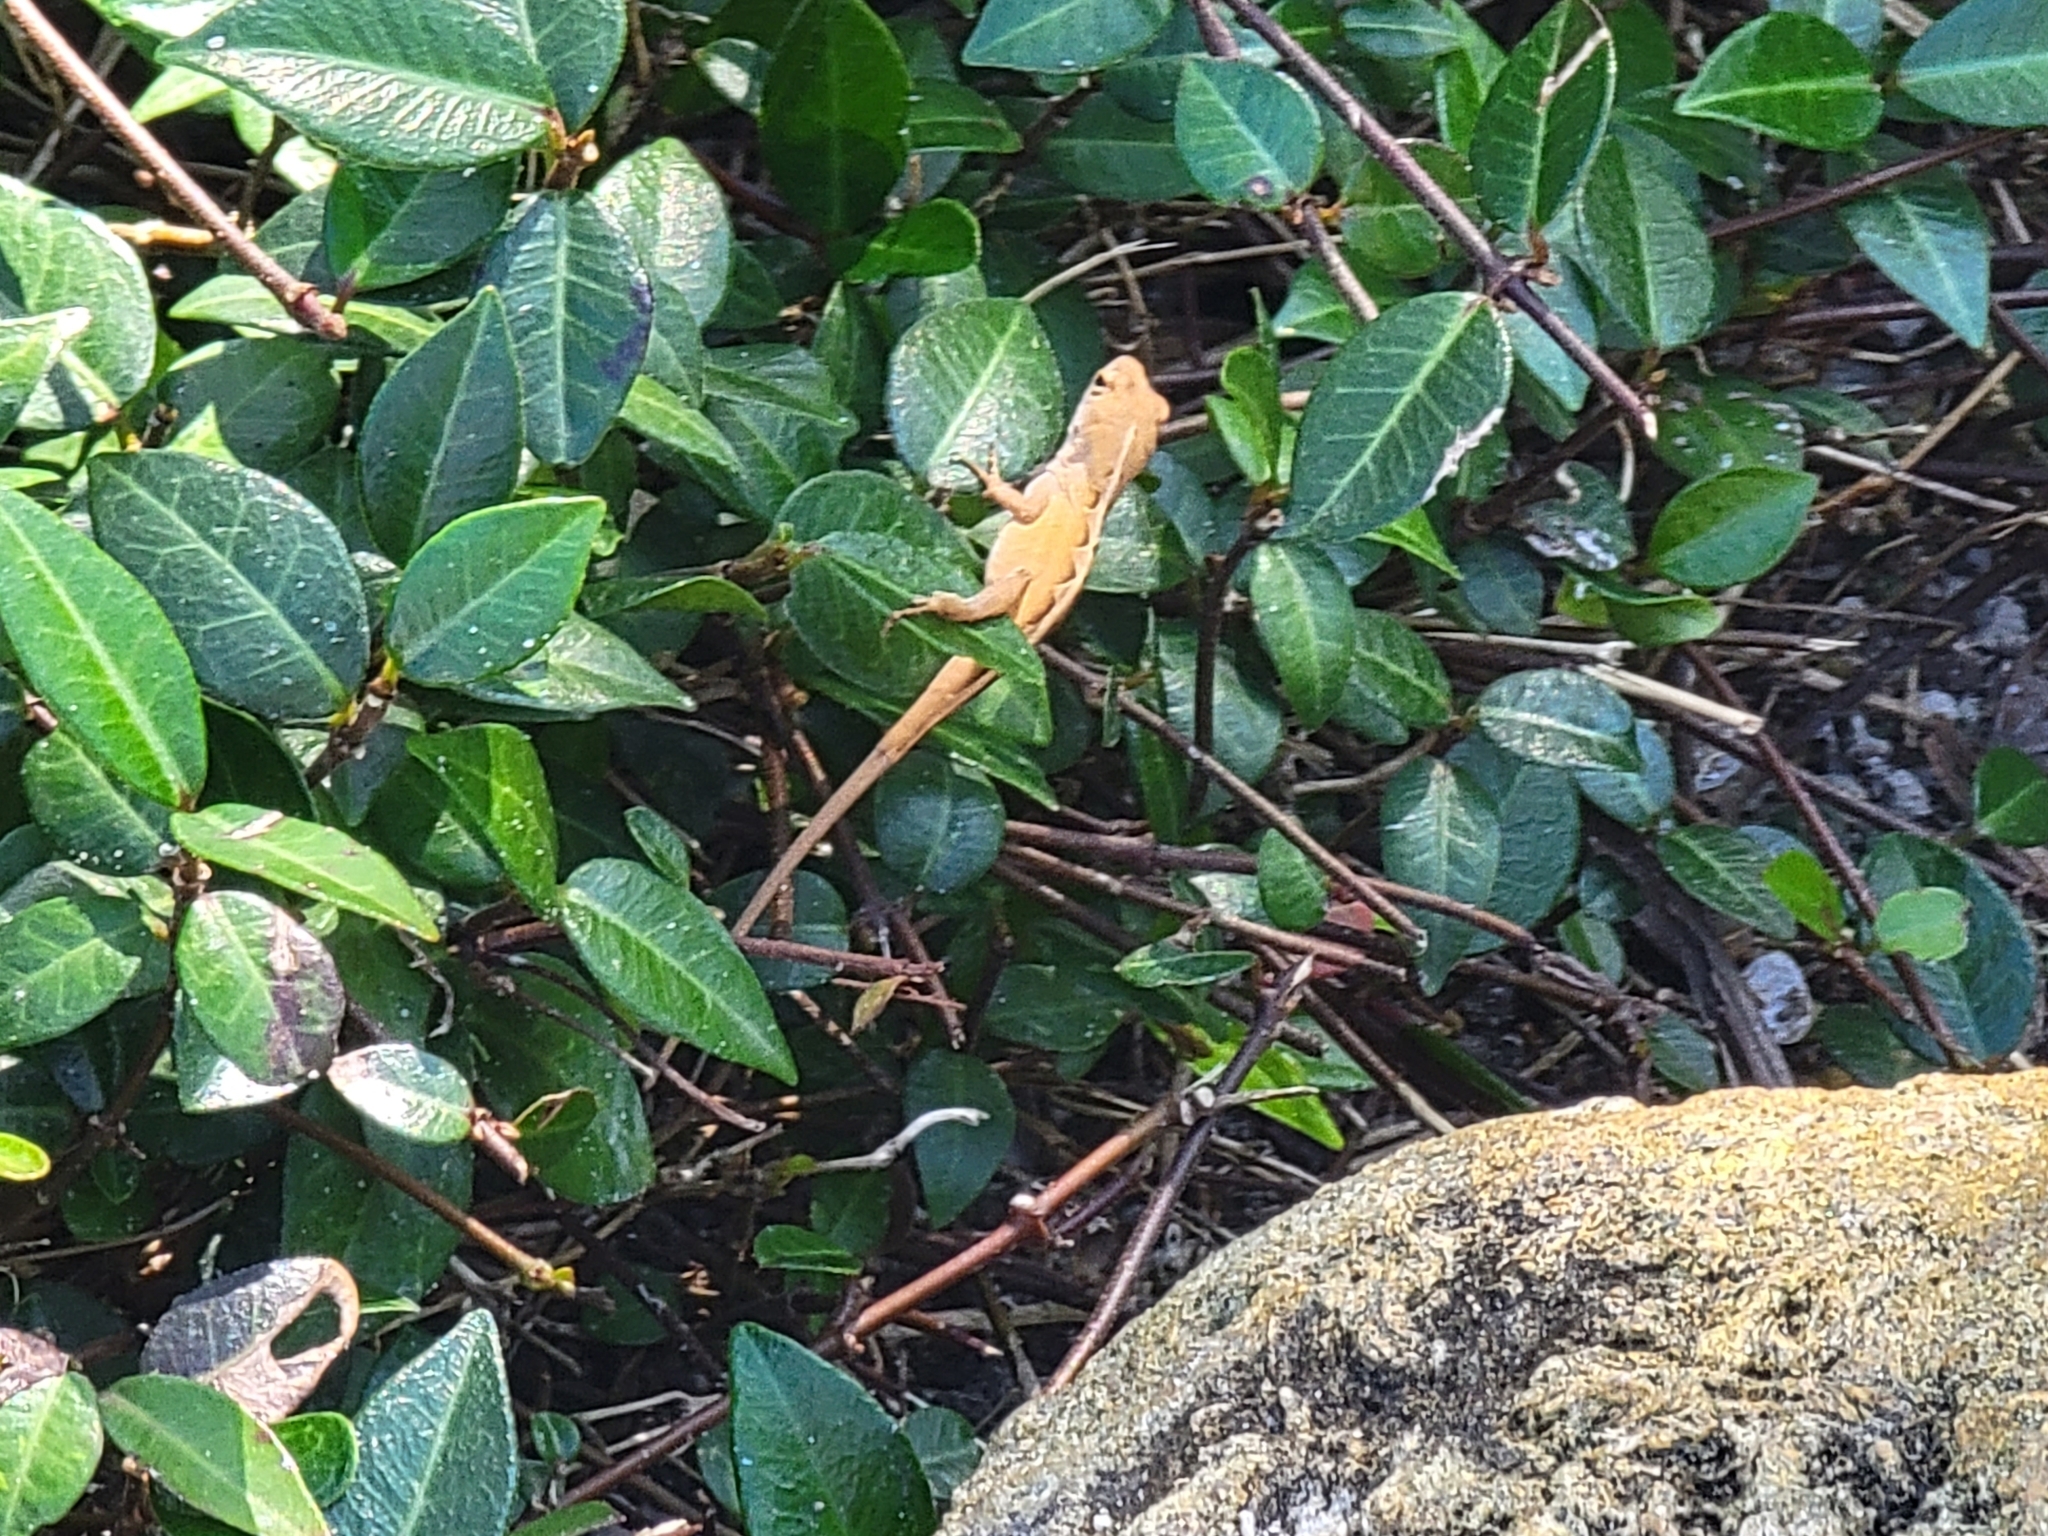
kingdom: Animalia
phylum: Chordata
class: Squamata
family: Dactyloidae
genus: Anolis
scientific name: Anolis sagrei
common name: Brown anole
